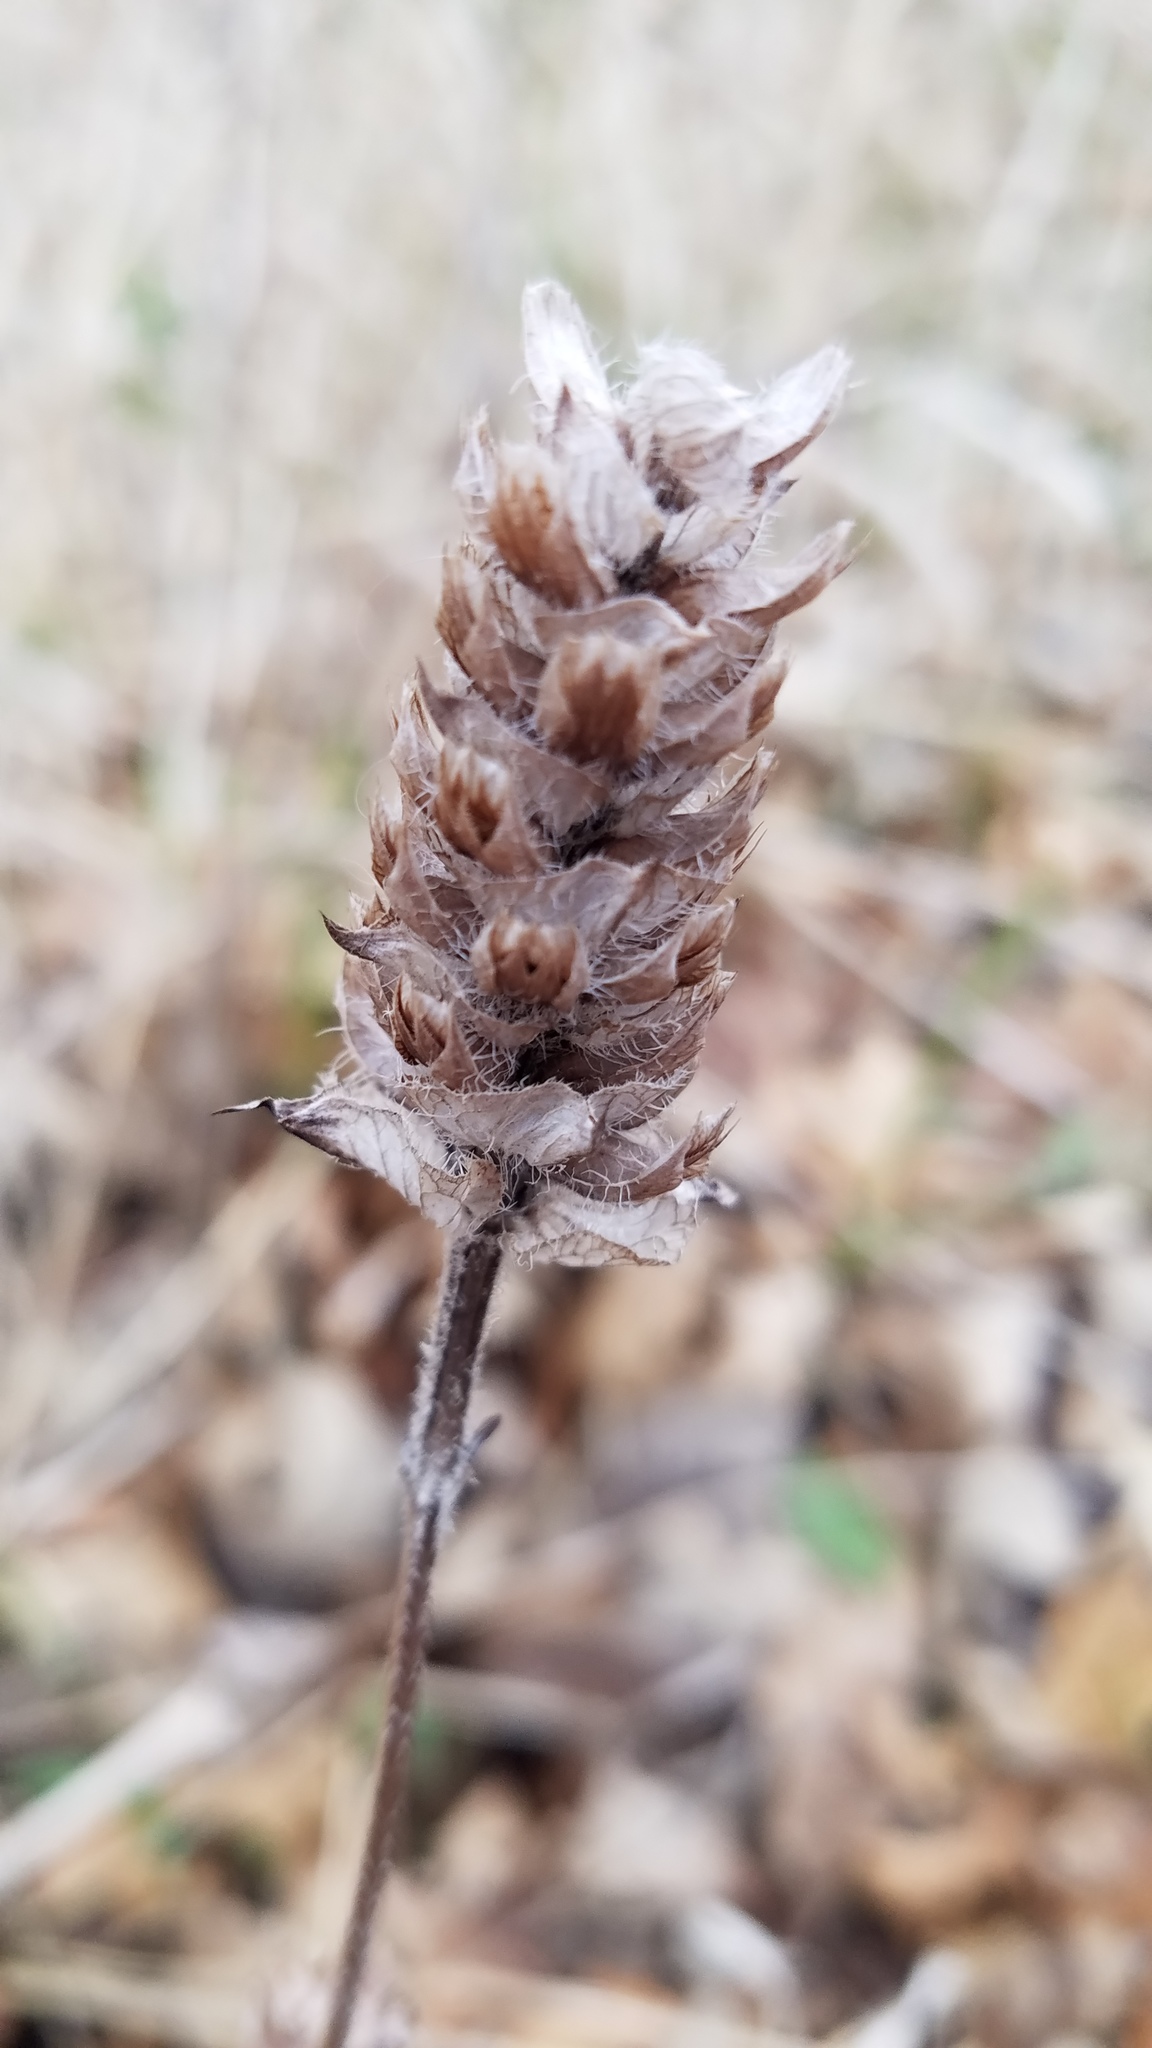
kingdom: Plantae
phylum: Tracheophyta
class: Magnoliopsida
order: Lamiales
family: Lamiaceae
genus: Prunella
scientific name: Prunella vulgaris
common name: Heal-all
